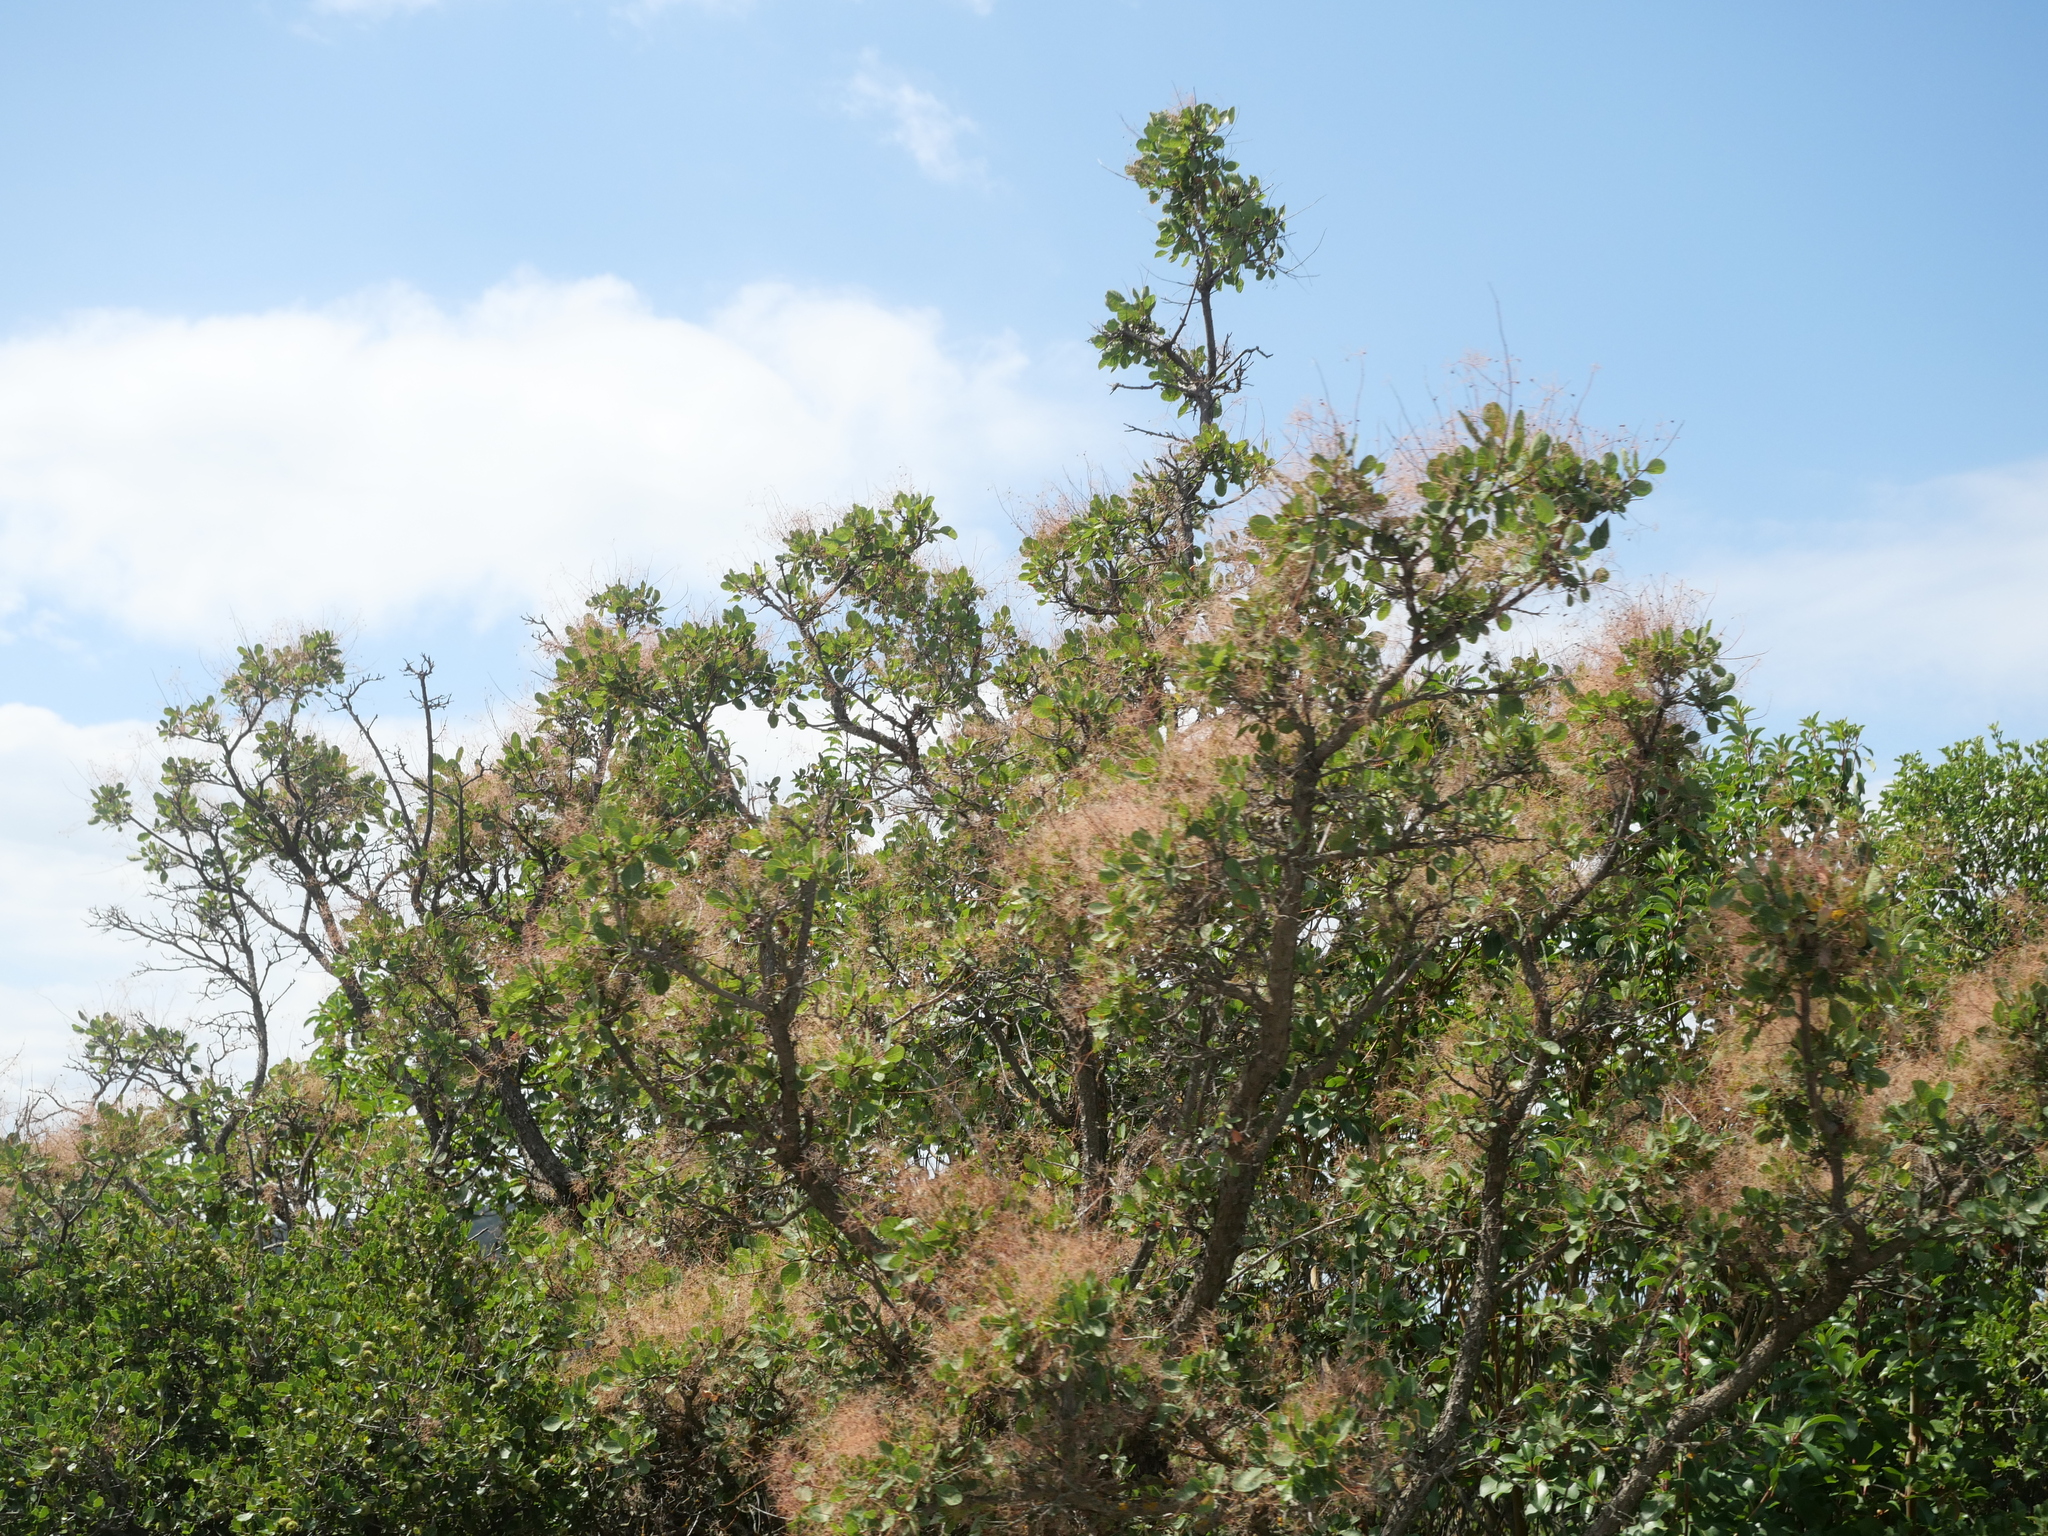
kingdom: Plantae
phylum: Tracheophyta
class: Magnoliopsida
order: Sapindales
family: Anacardiaceae
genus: Cotinus
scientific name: Cotinus coggygria
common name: Smoke-tree
